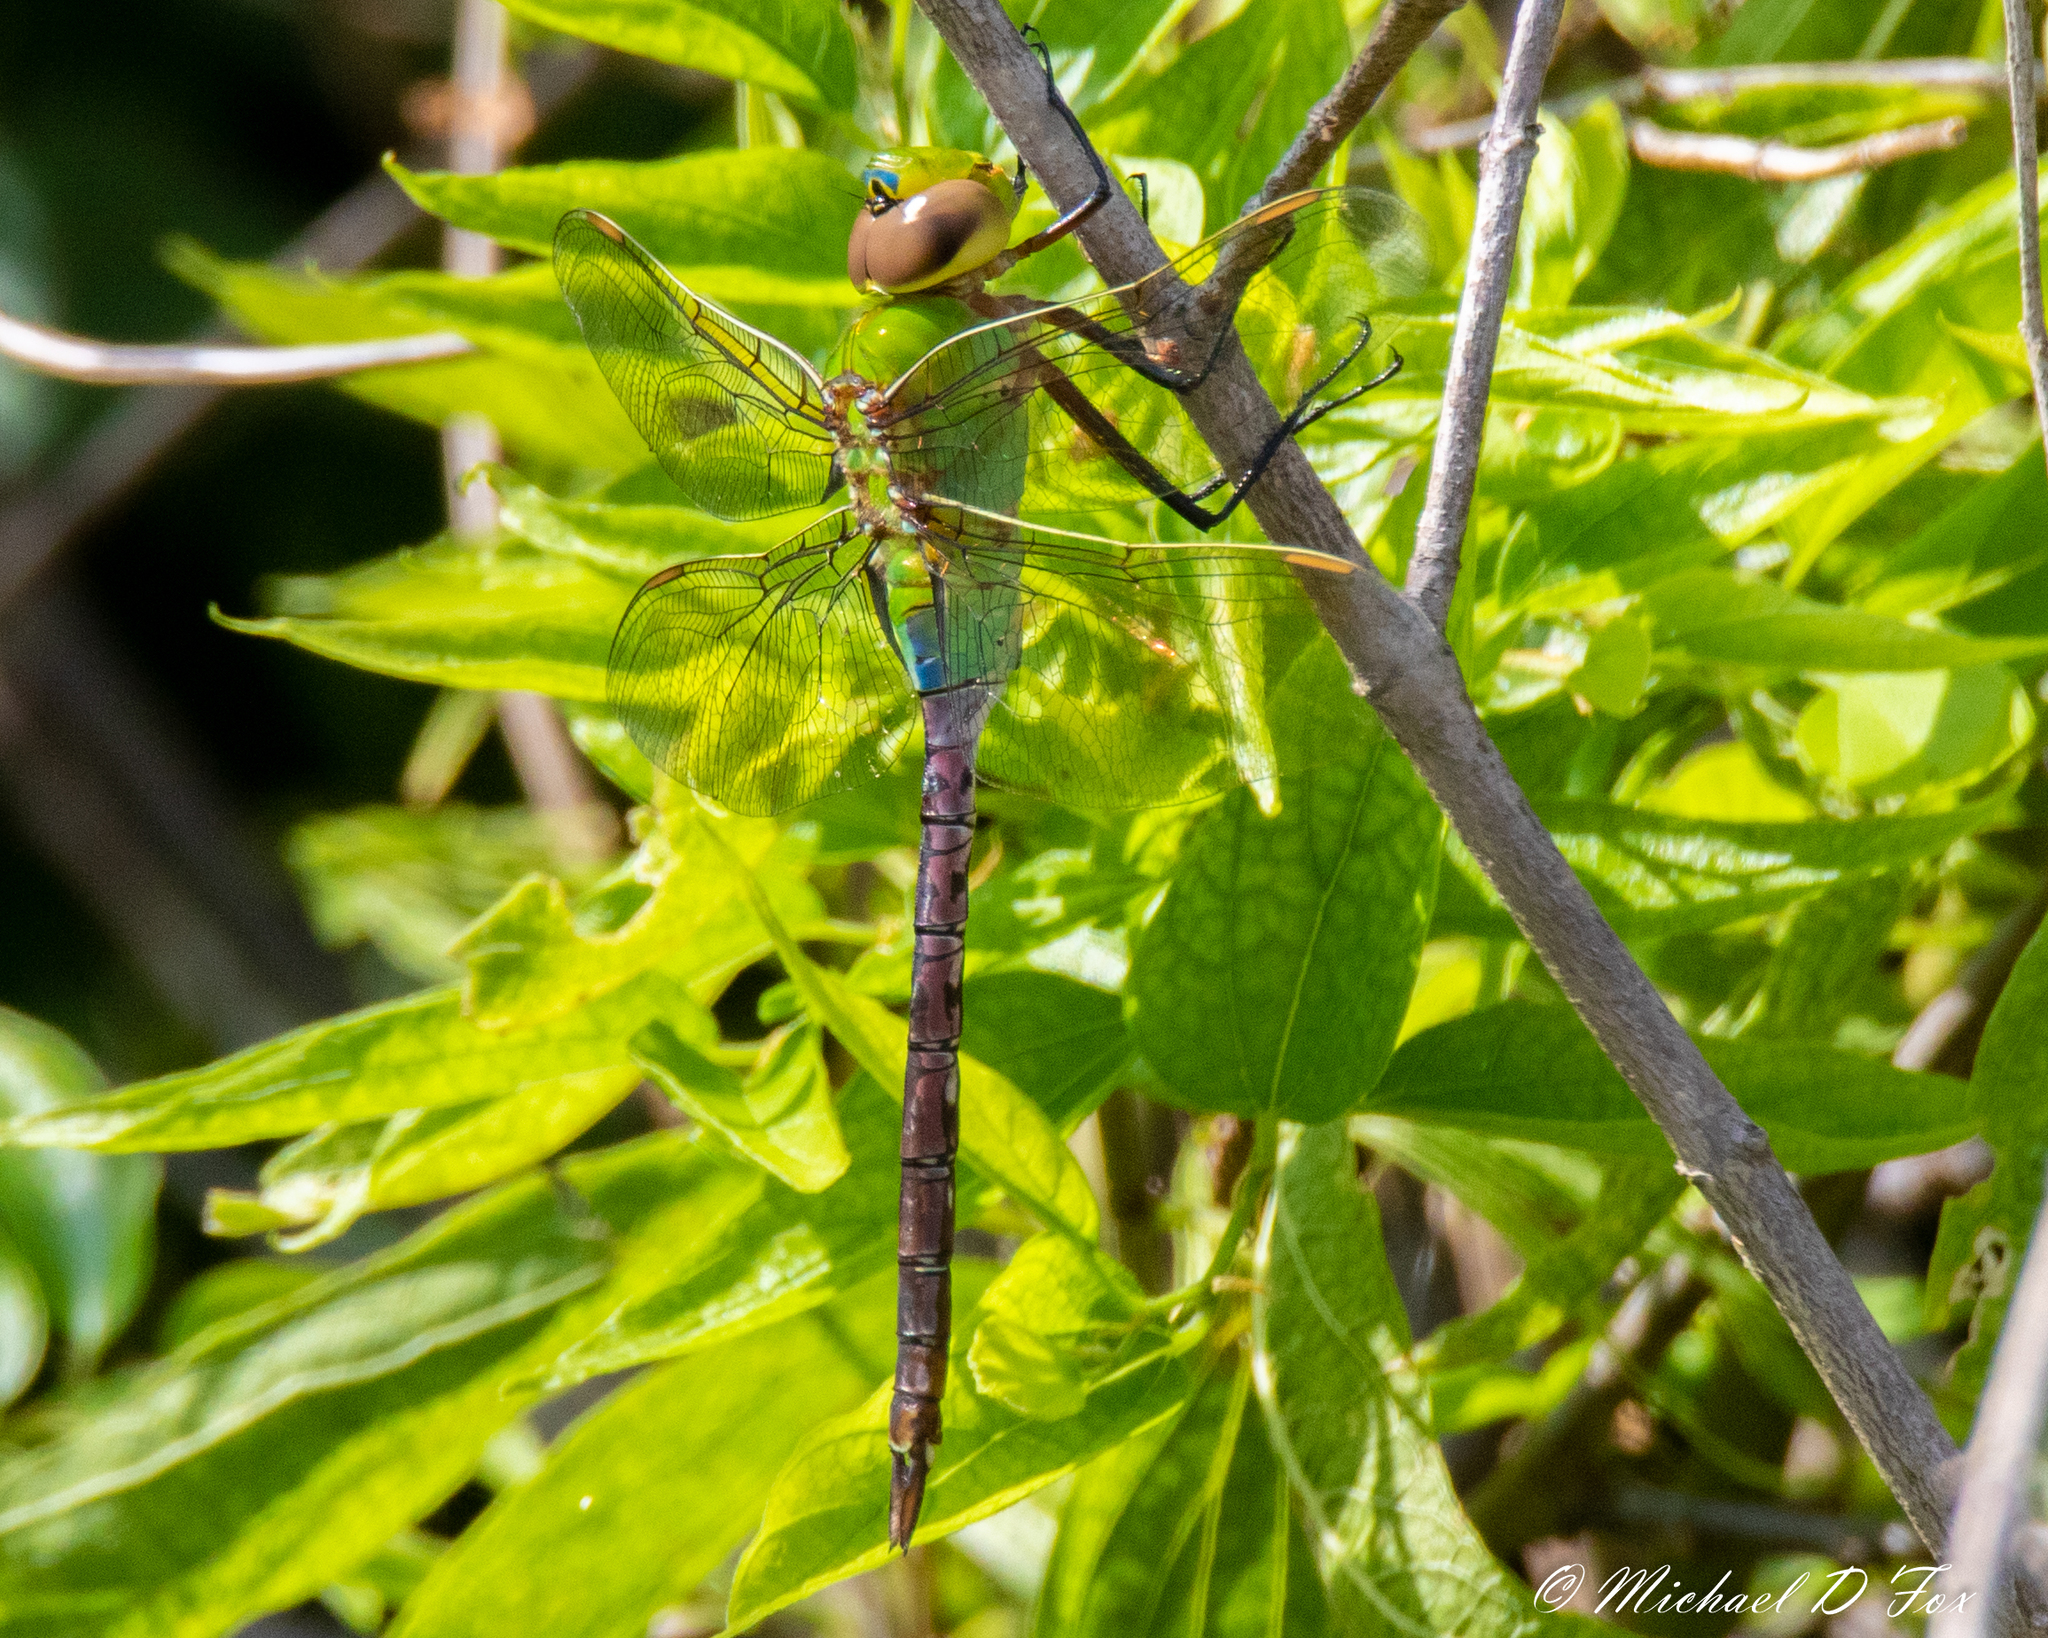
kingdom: Animalia
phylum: Arthropoda
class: Insecta
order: Odonata
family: Aeshnidae
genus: Anax
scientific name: Anax junius
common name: Common green darner
